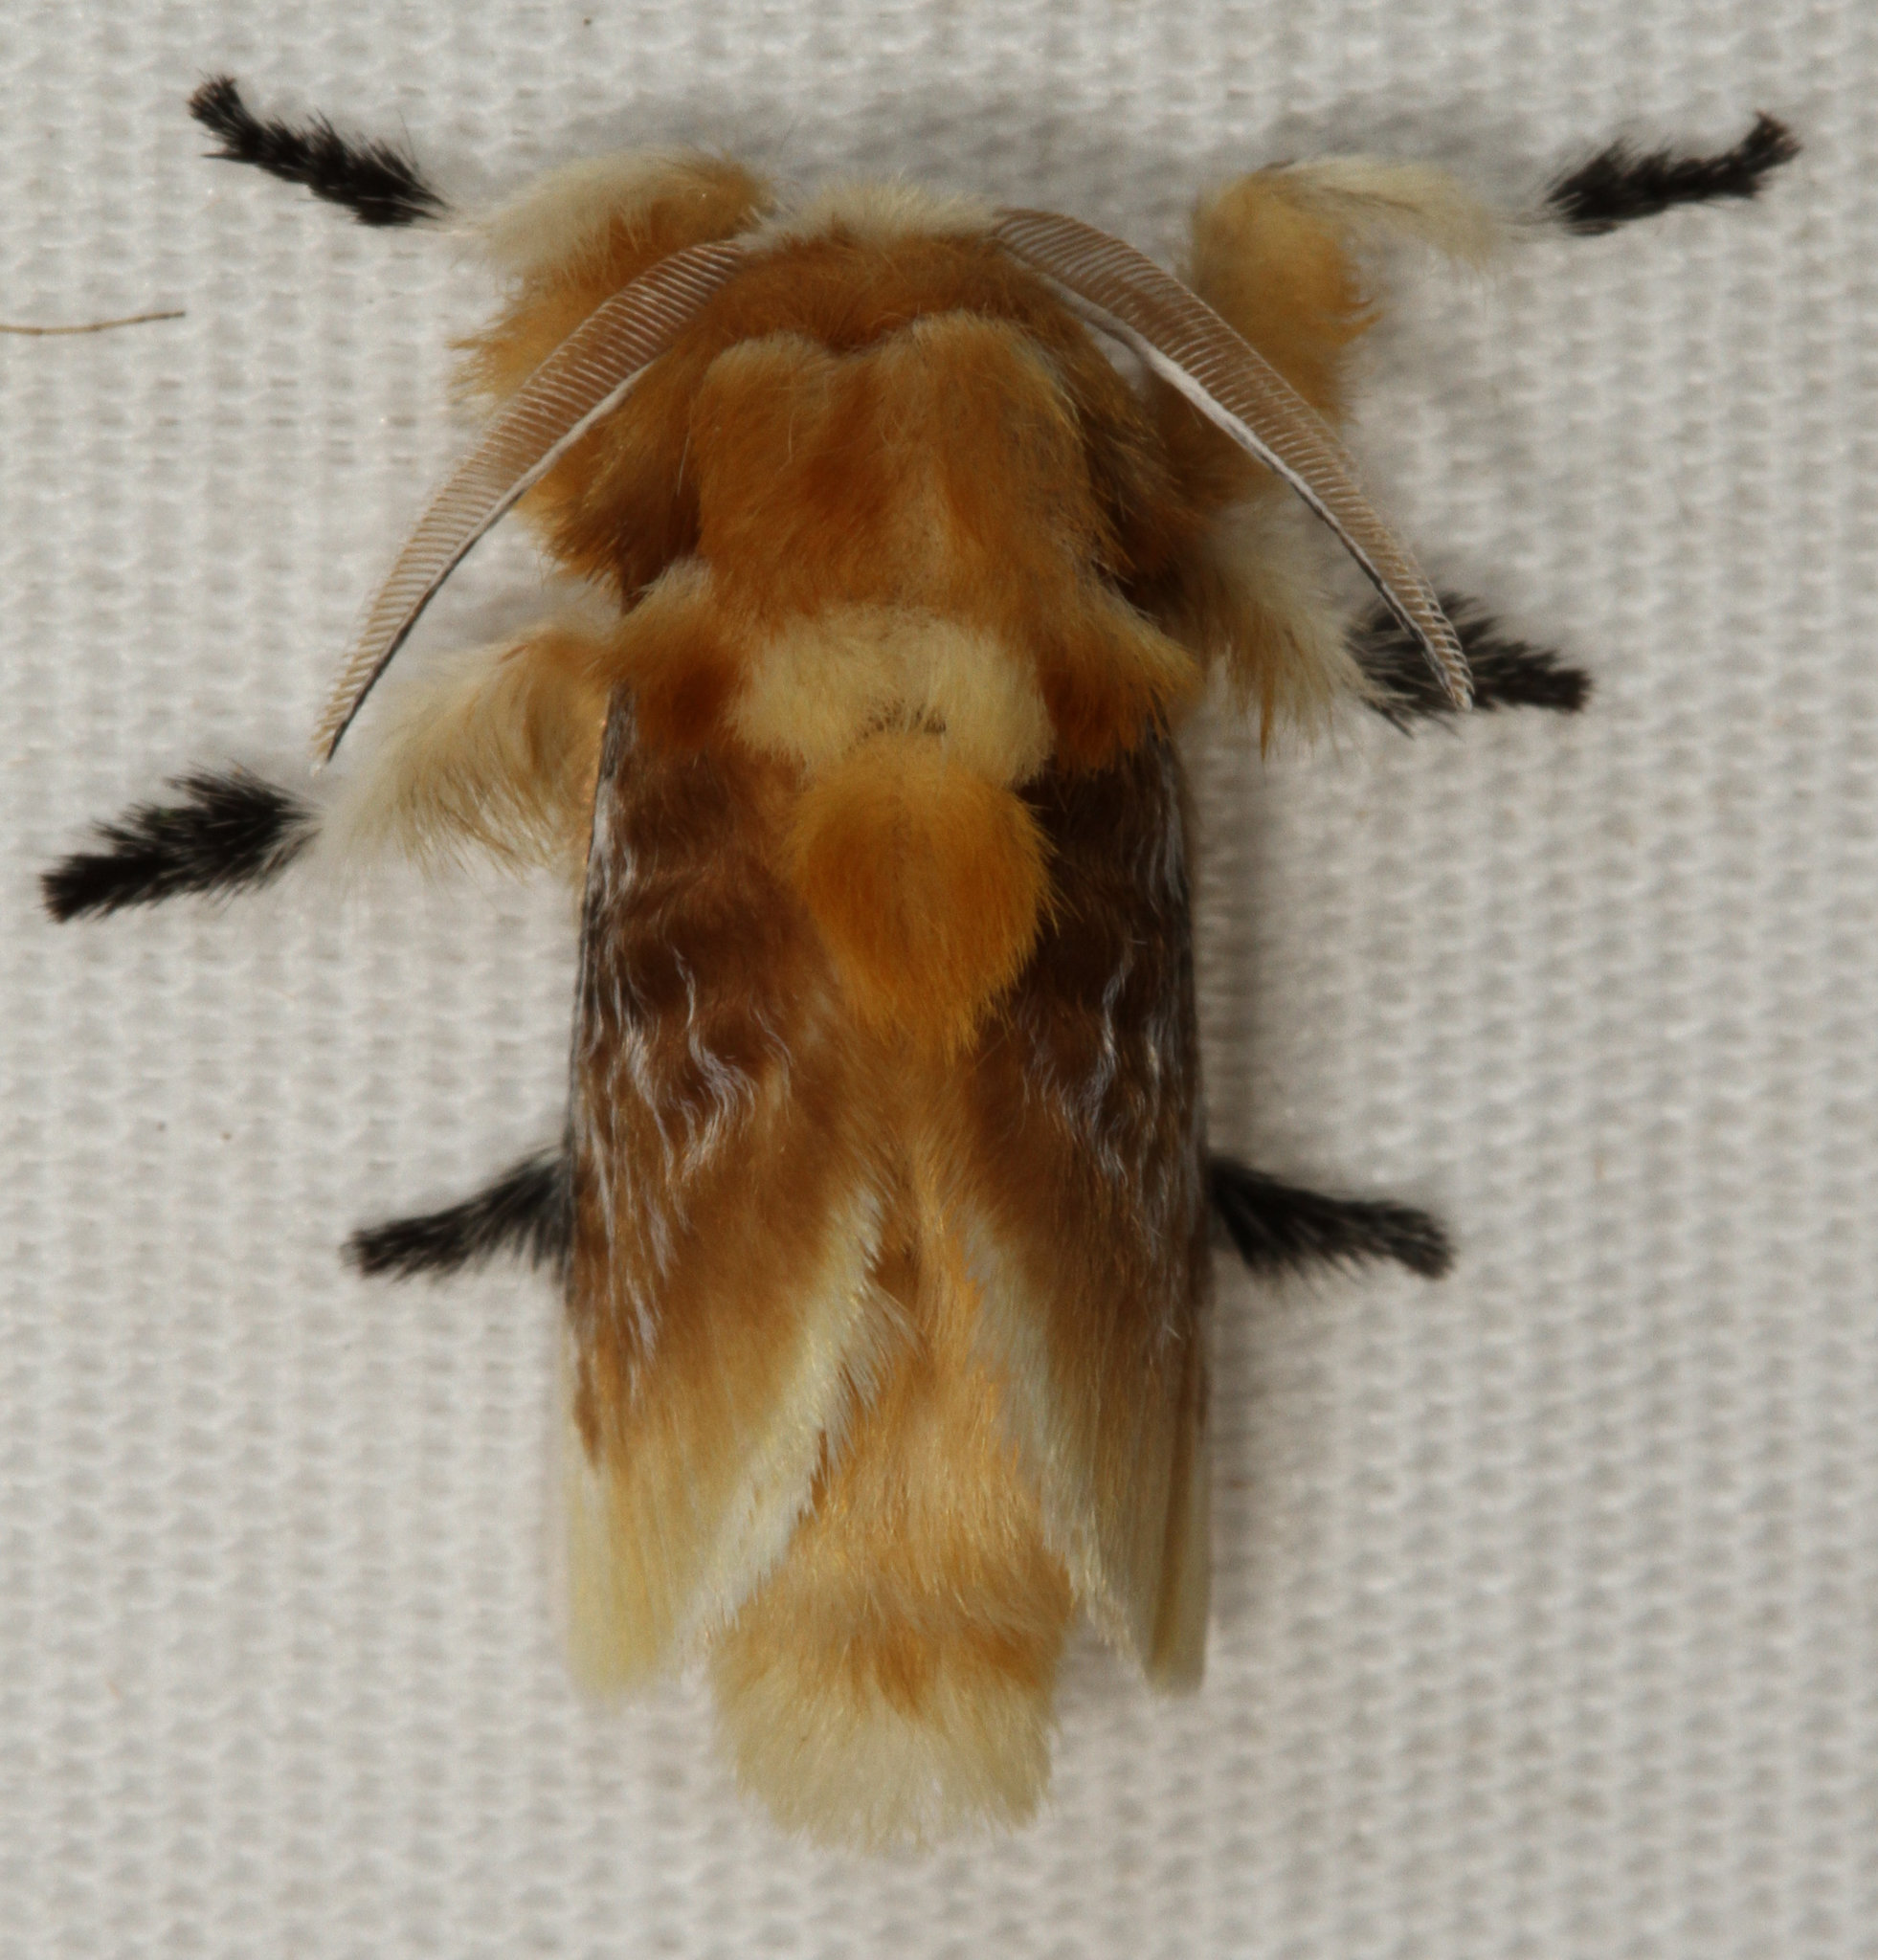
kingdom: Animalia
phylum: Arthropoda
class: Insecta
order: Lepidoptera
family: Megalopygidae
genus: Megalopyge
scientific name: Megalopyge opercularis
